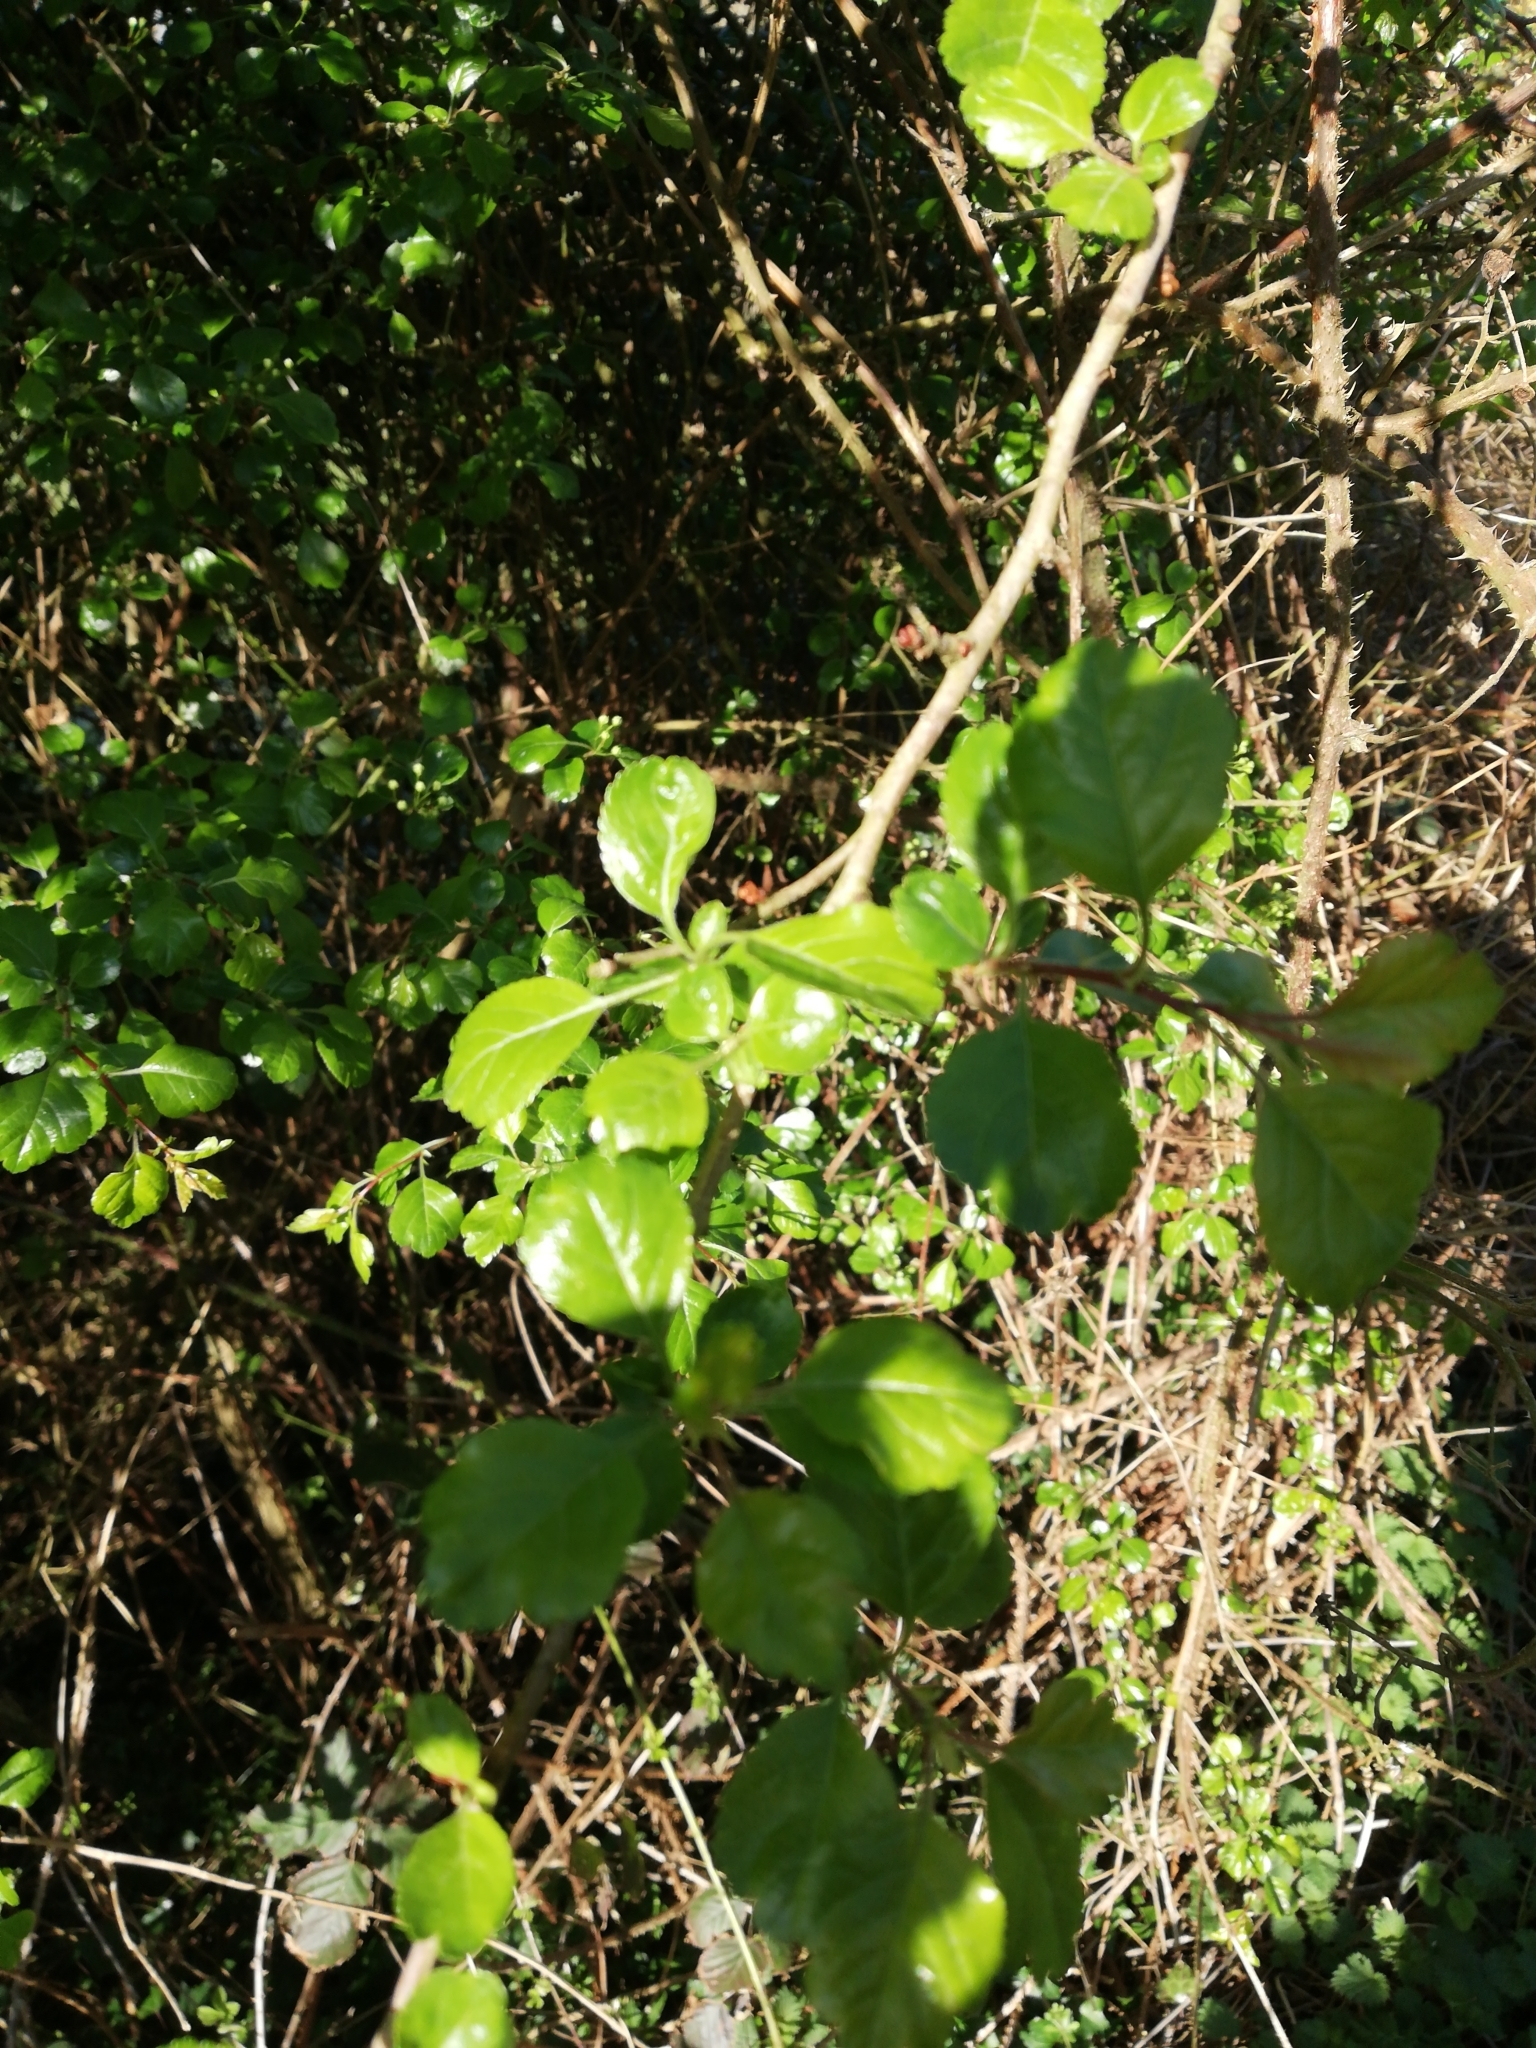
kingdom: Plantae
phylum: Tracheophyta
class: Magnoliopsida
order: Rosales
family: Rosaceae
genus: Crataegus
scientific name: Crataegus laevigata
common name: Midland hawthorn
